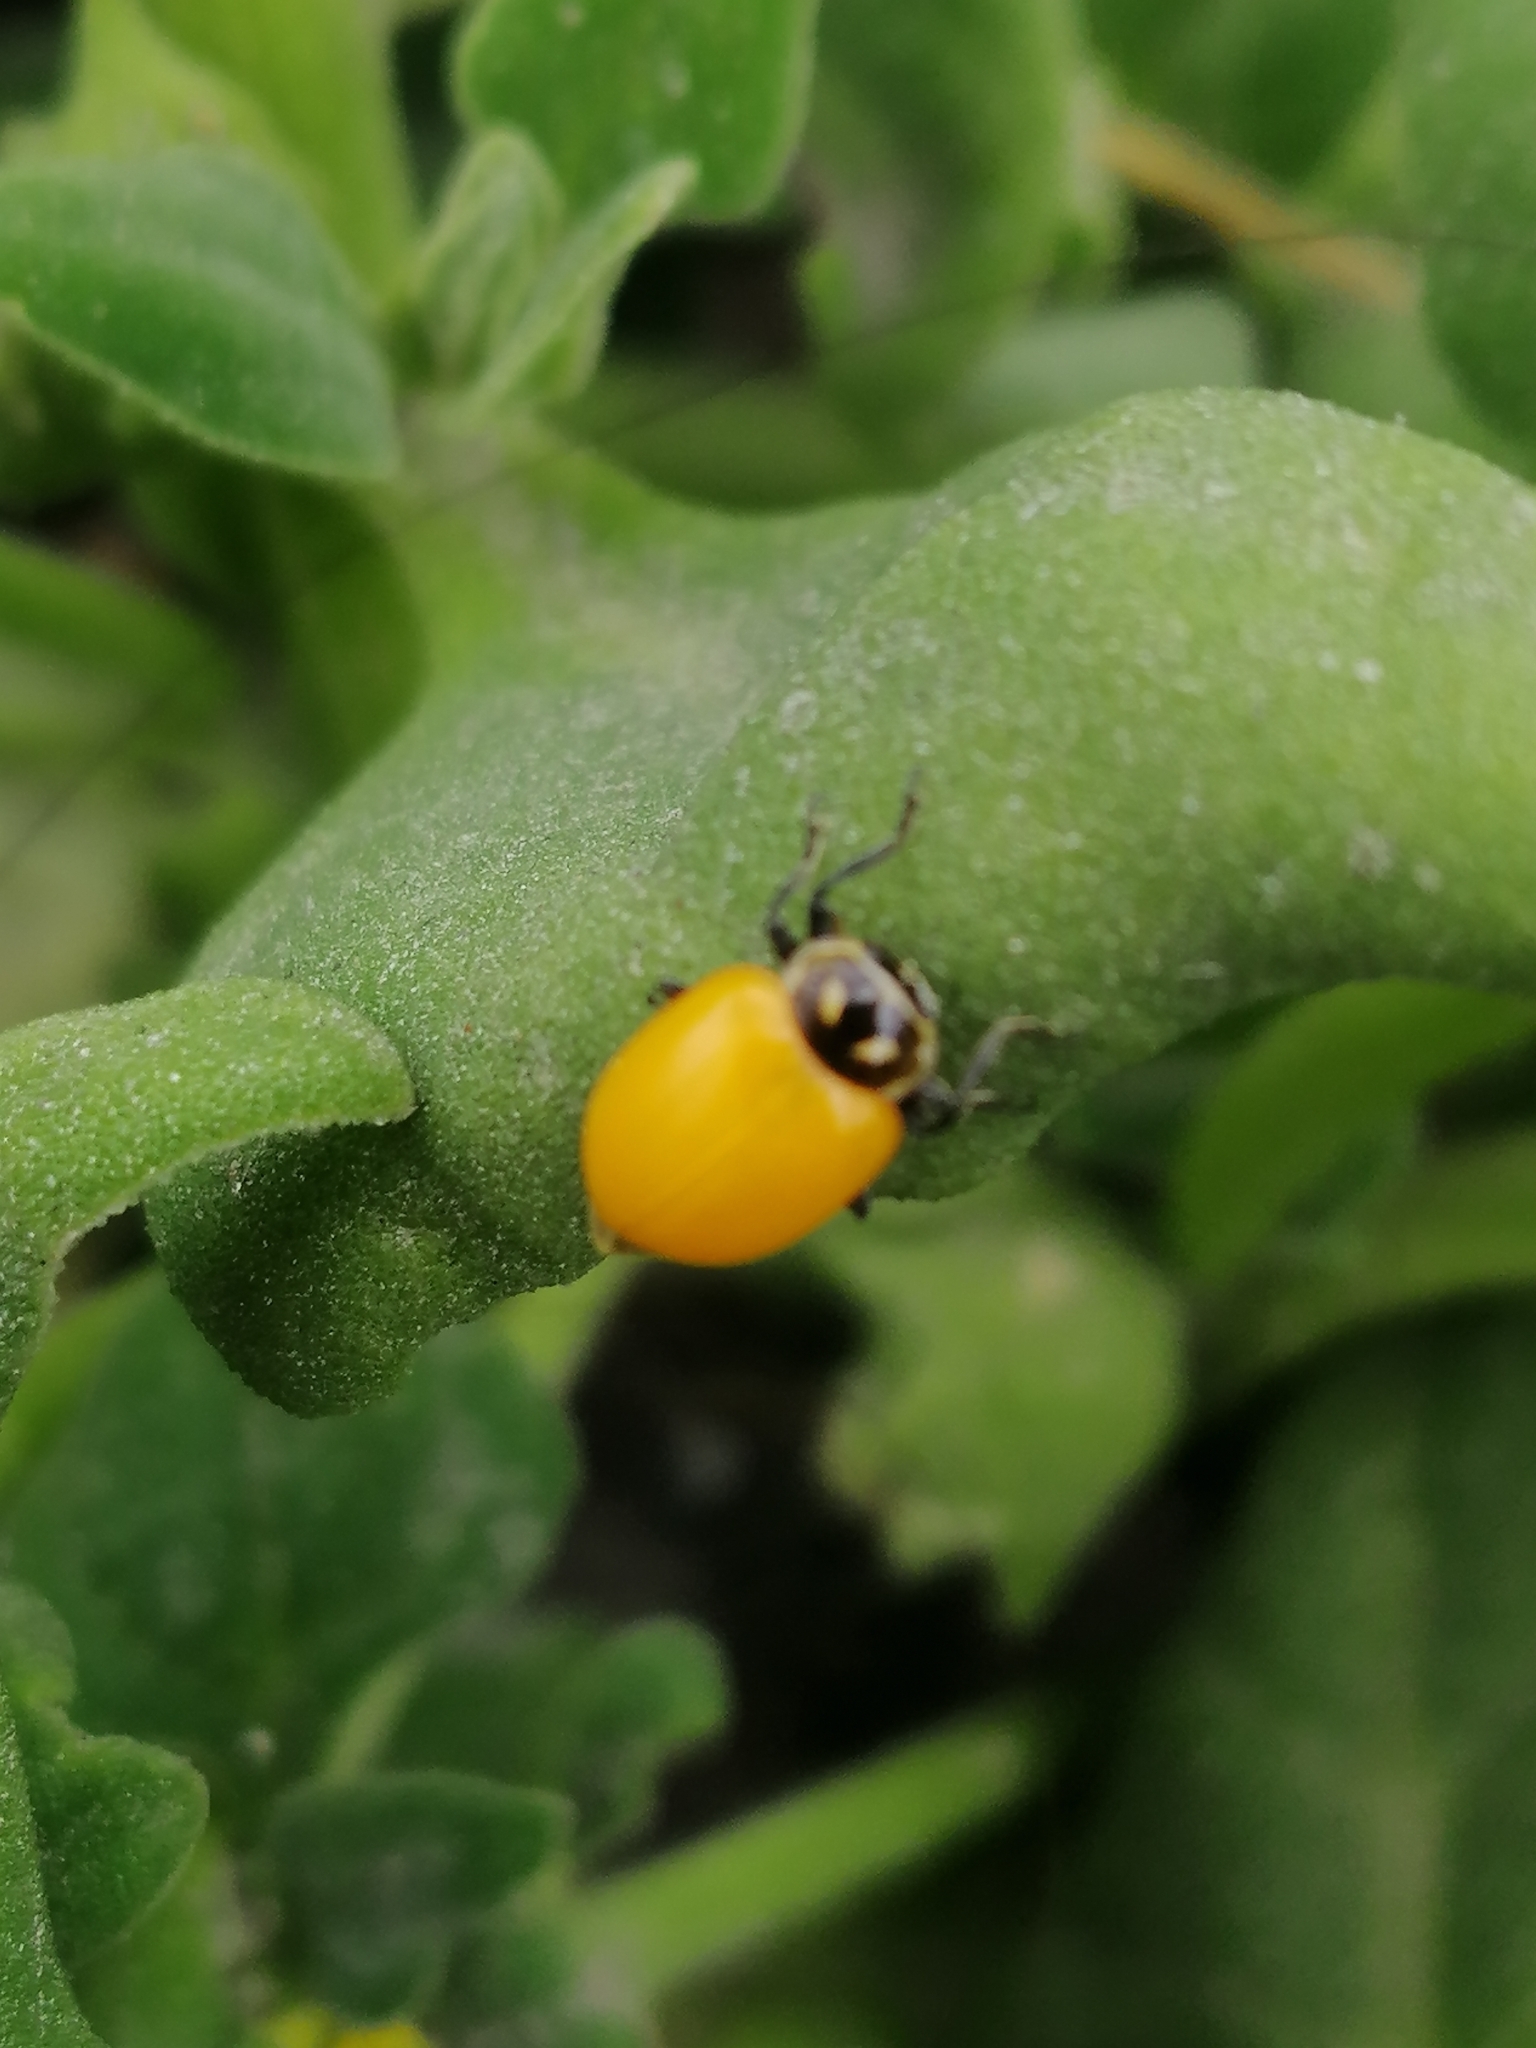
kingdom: Animalia
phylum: Arthropoda
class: Insecta
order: Coleoptera
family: Coccinellidae
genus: Hippodamia
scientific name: Hippodamia convergens
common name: Convergent lady beetle
